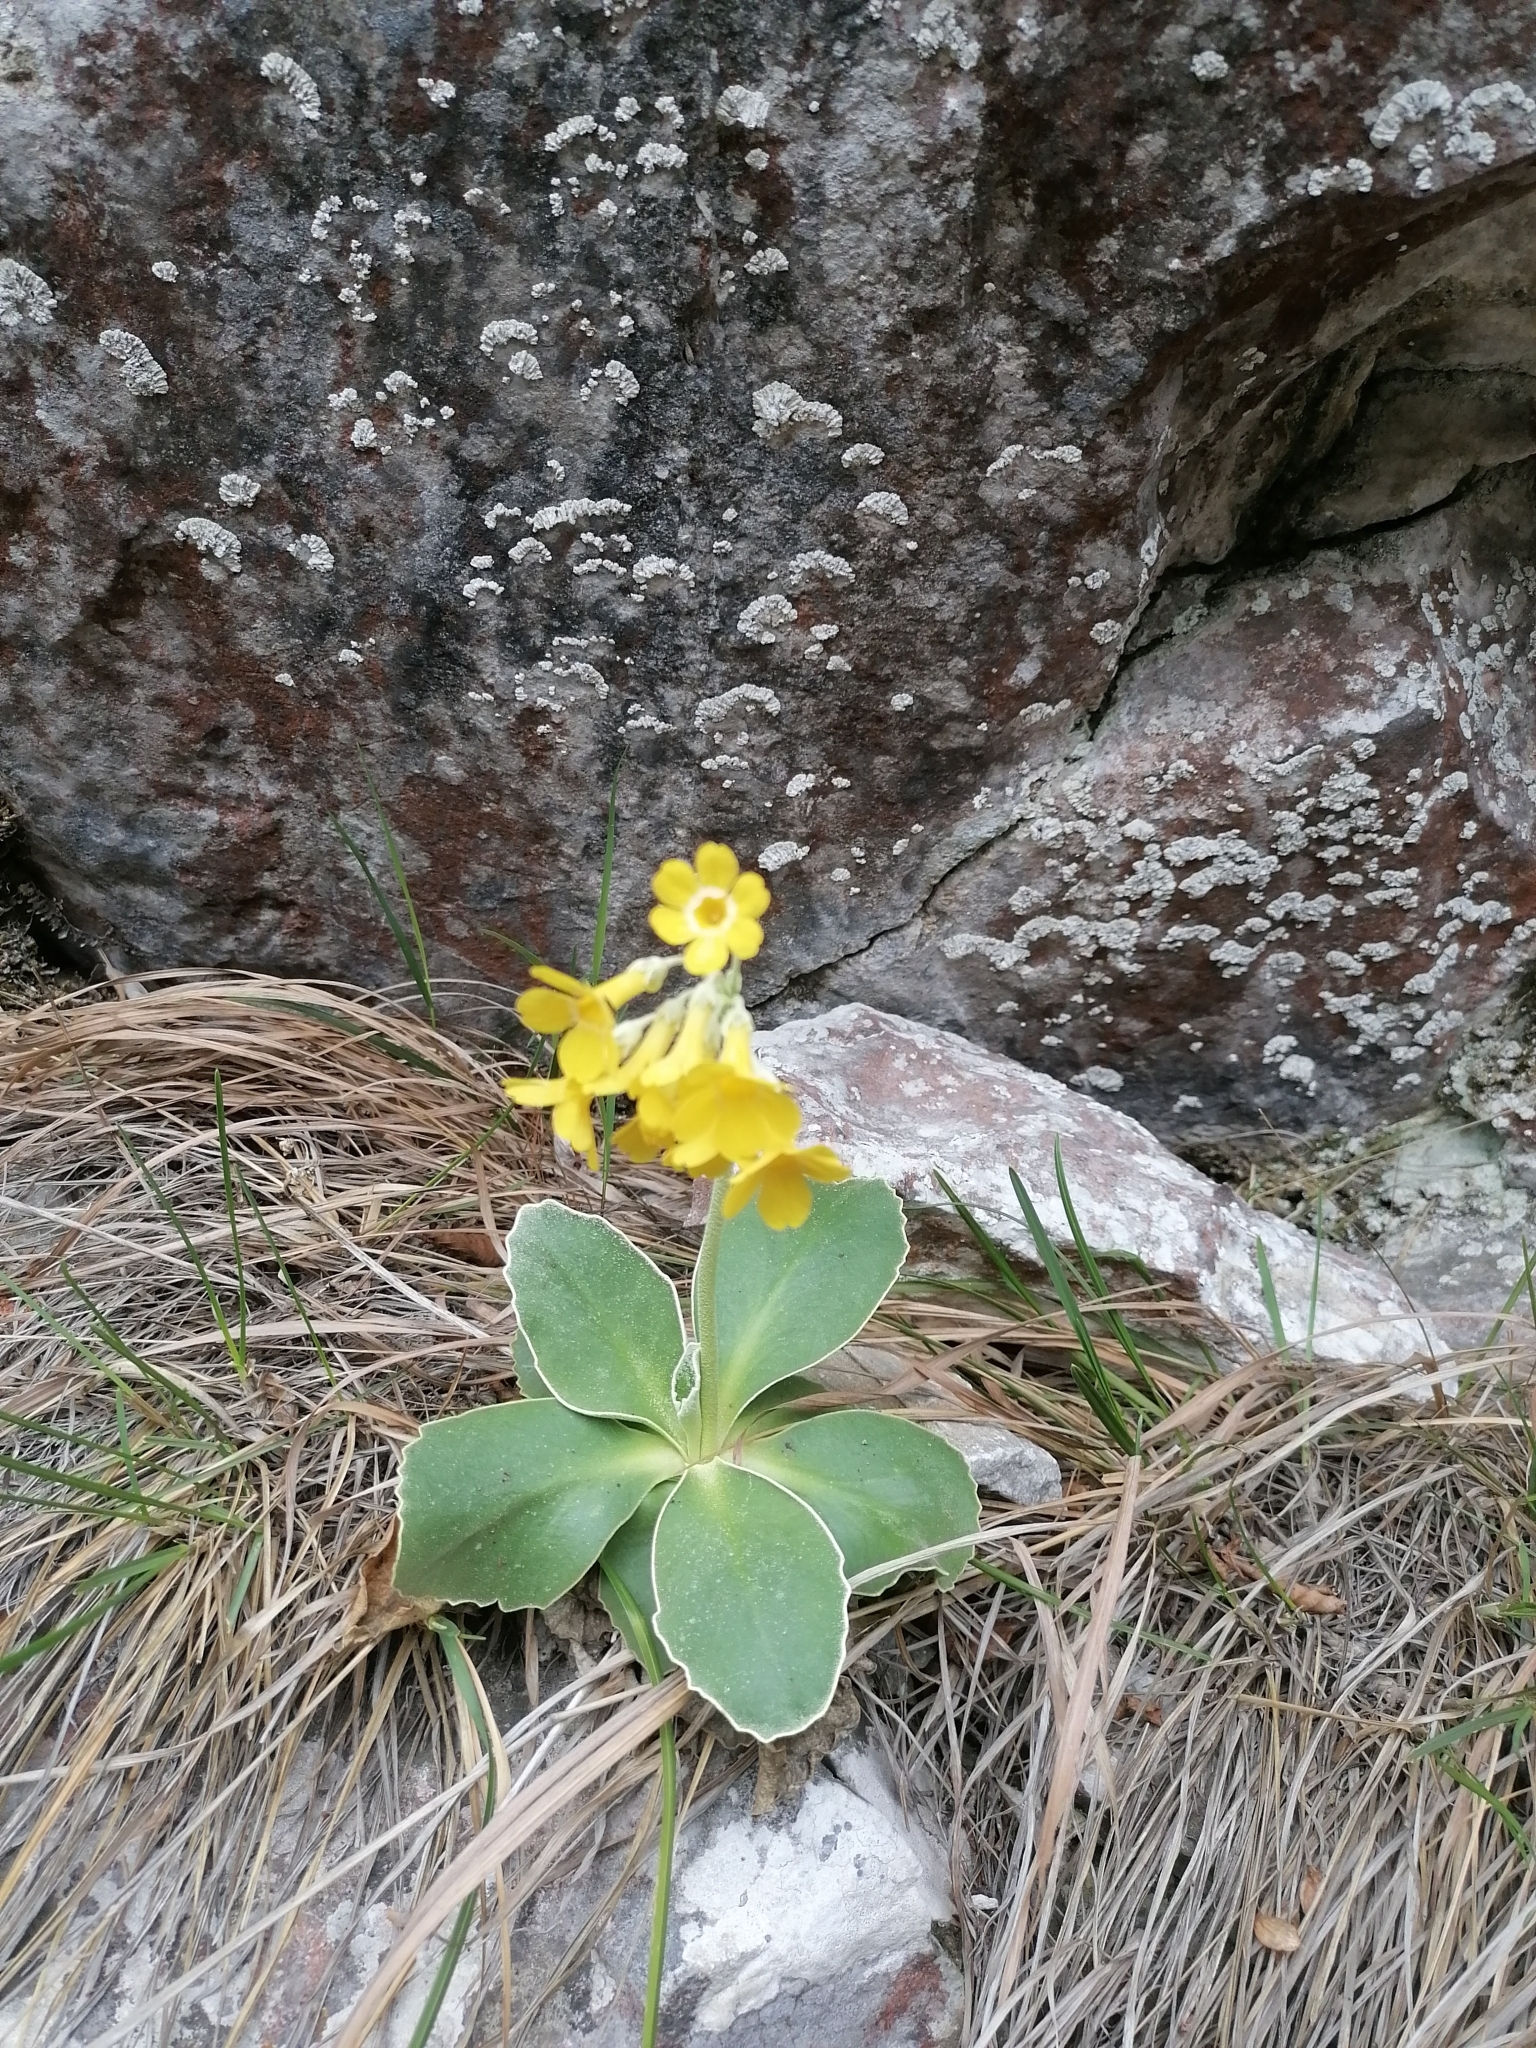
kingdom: Plantae
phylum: Tracheophyta
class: Magnoliopsida
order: Ericales
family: Primulaceae
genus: Primula
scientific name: Primula auricula
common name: Auricula
